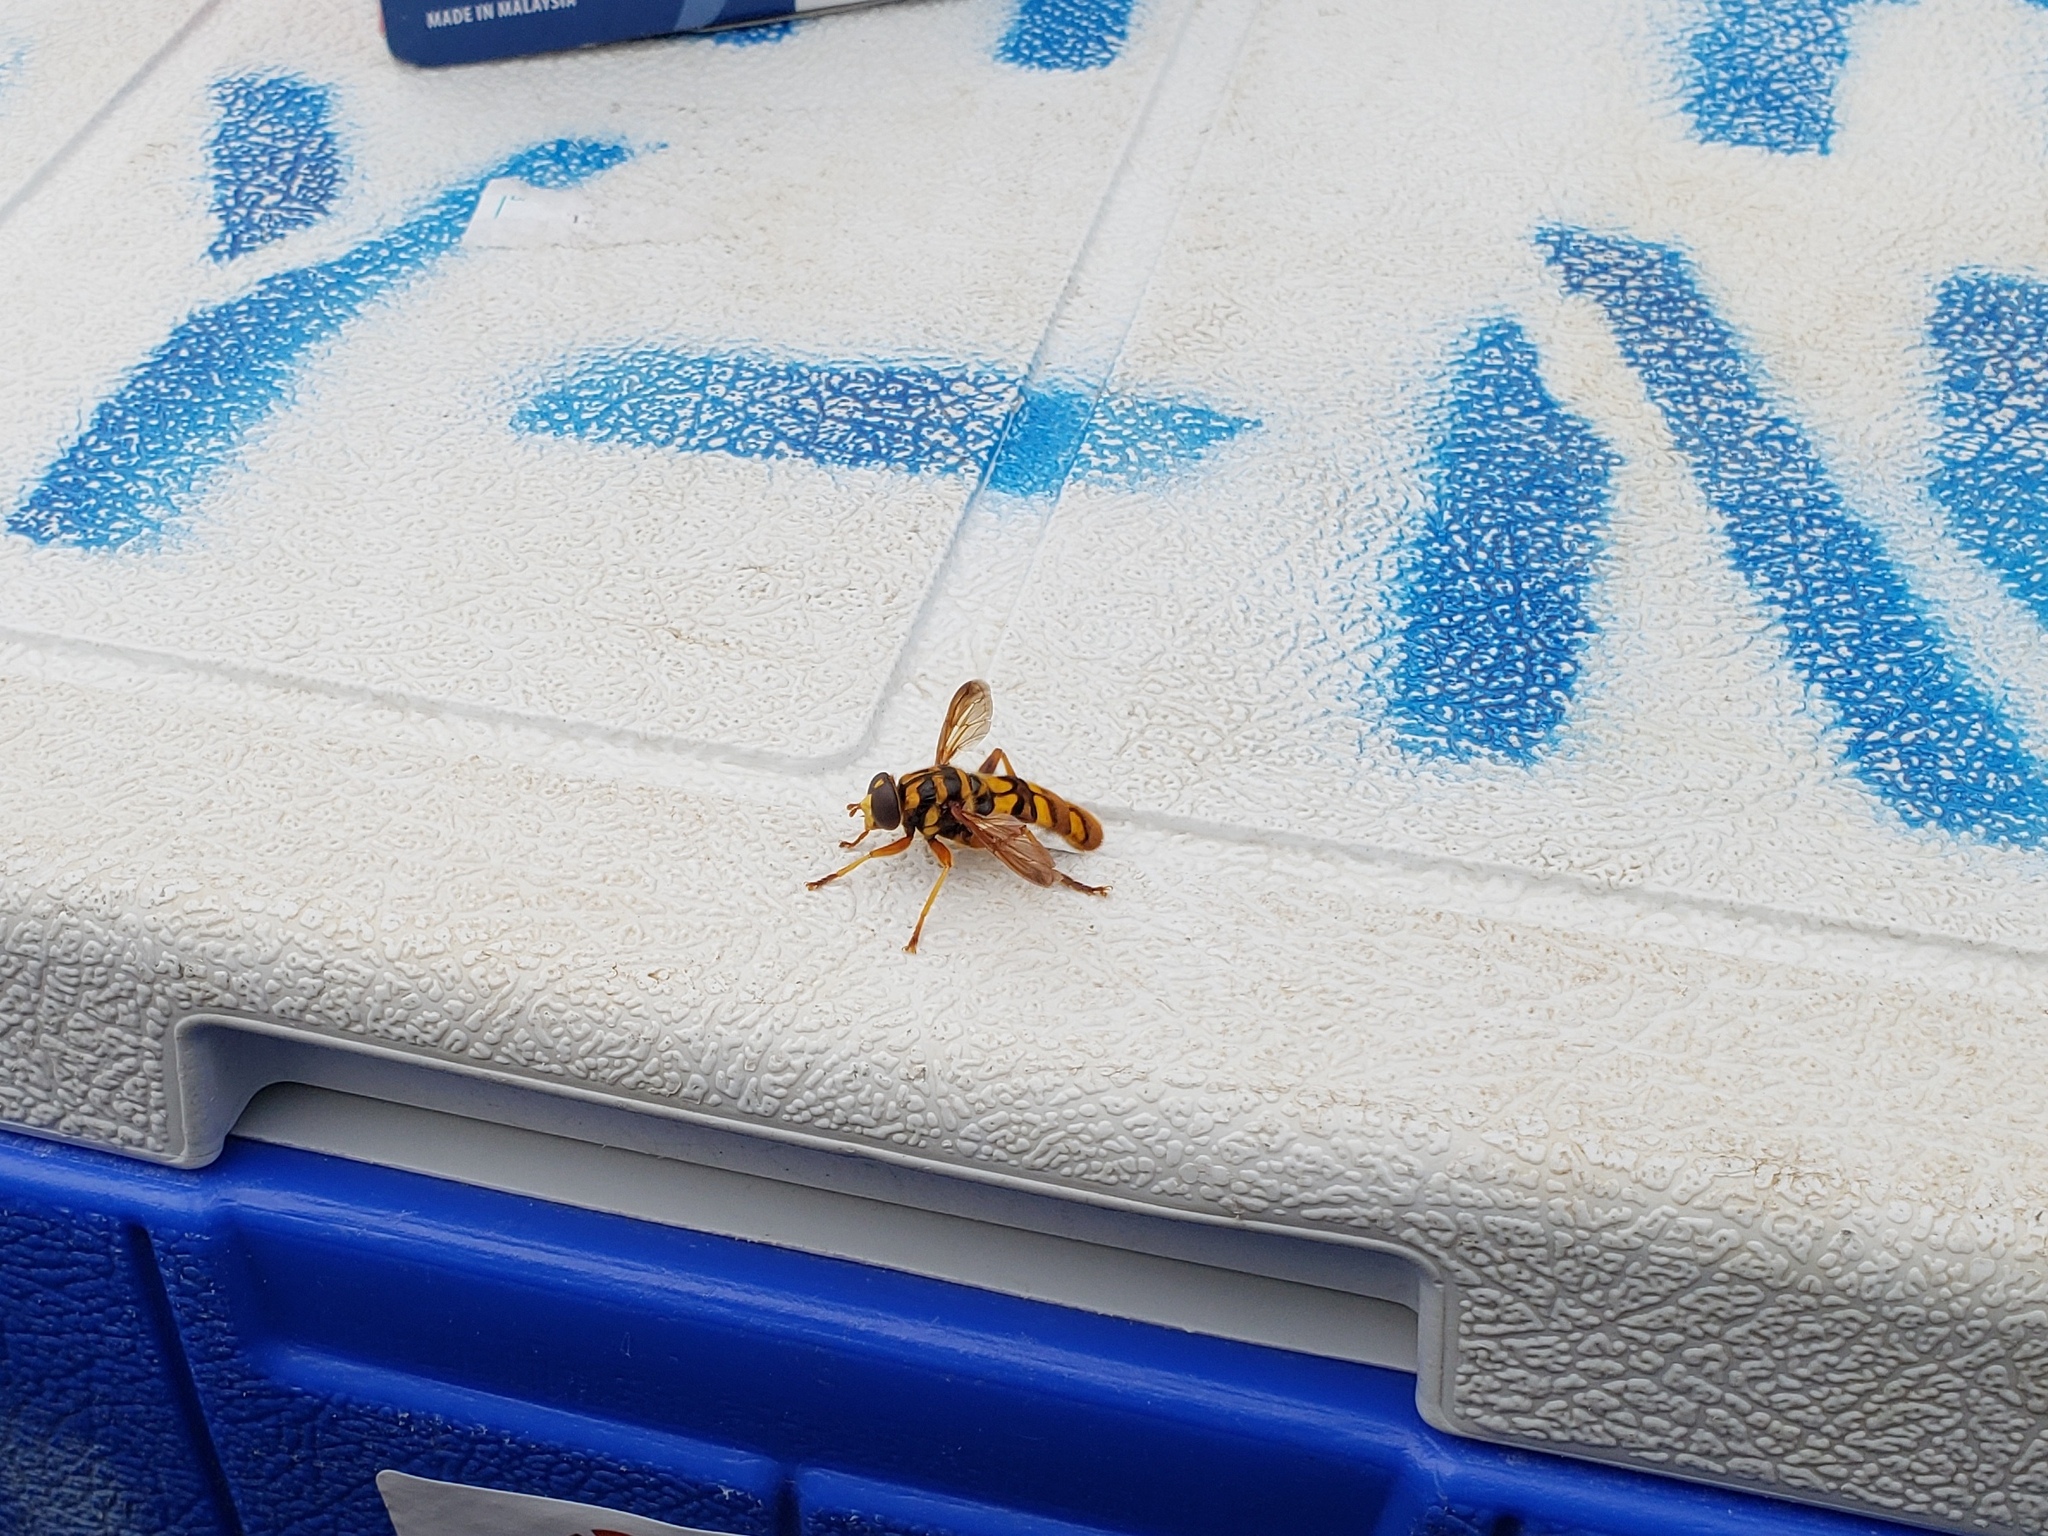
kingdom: Animalia
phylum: Arthropoda
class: Insecta
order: Diptera
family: Syrphidae
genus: Milesia
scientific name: Milesia virginiensis
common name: Virginia giant
